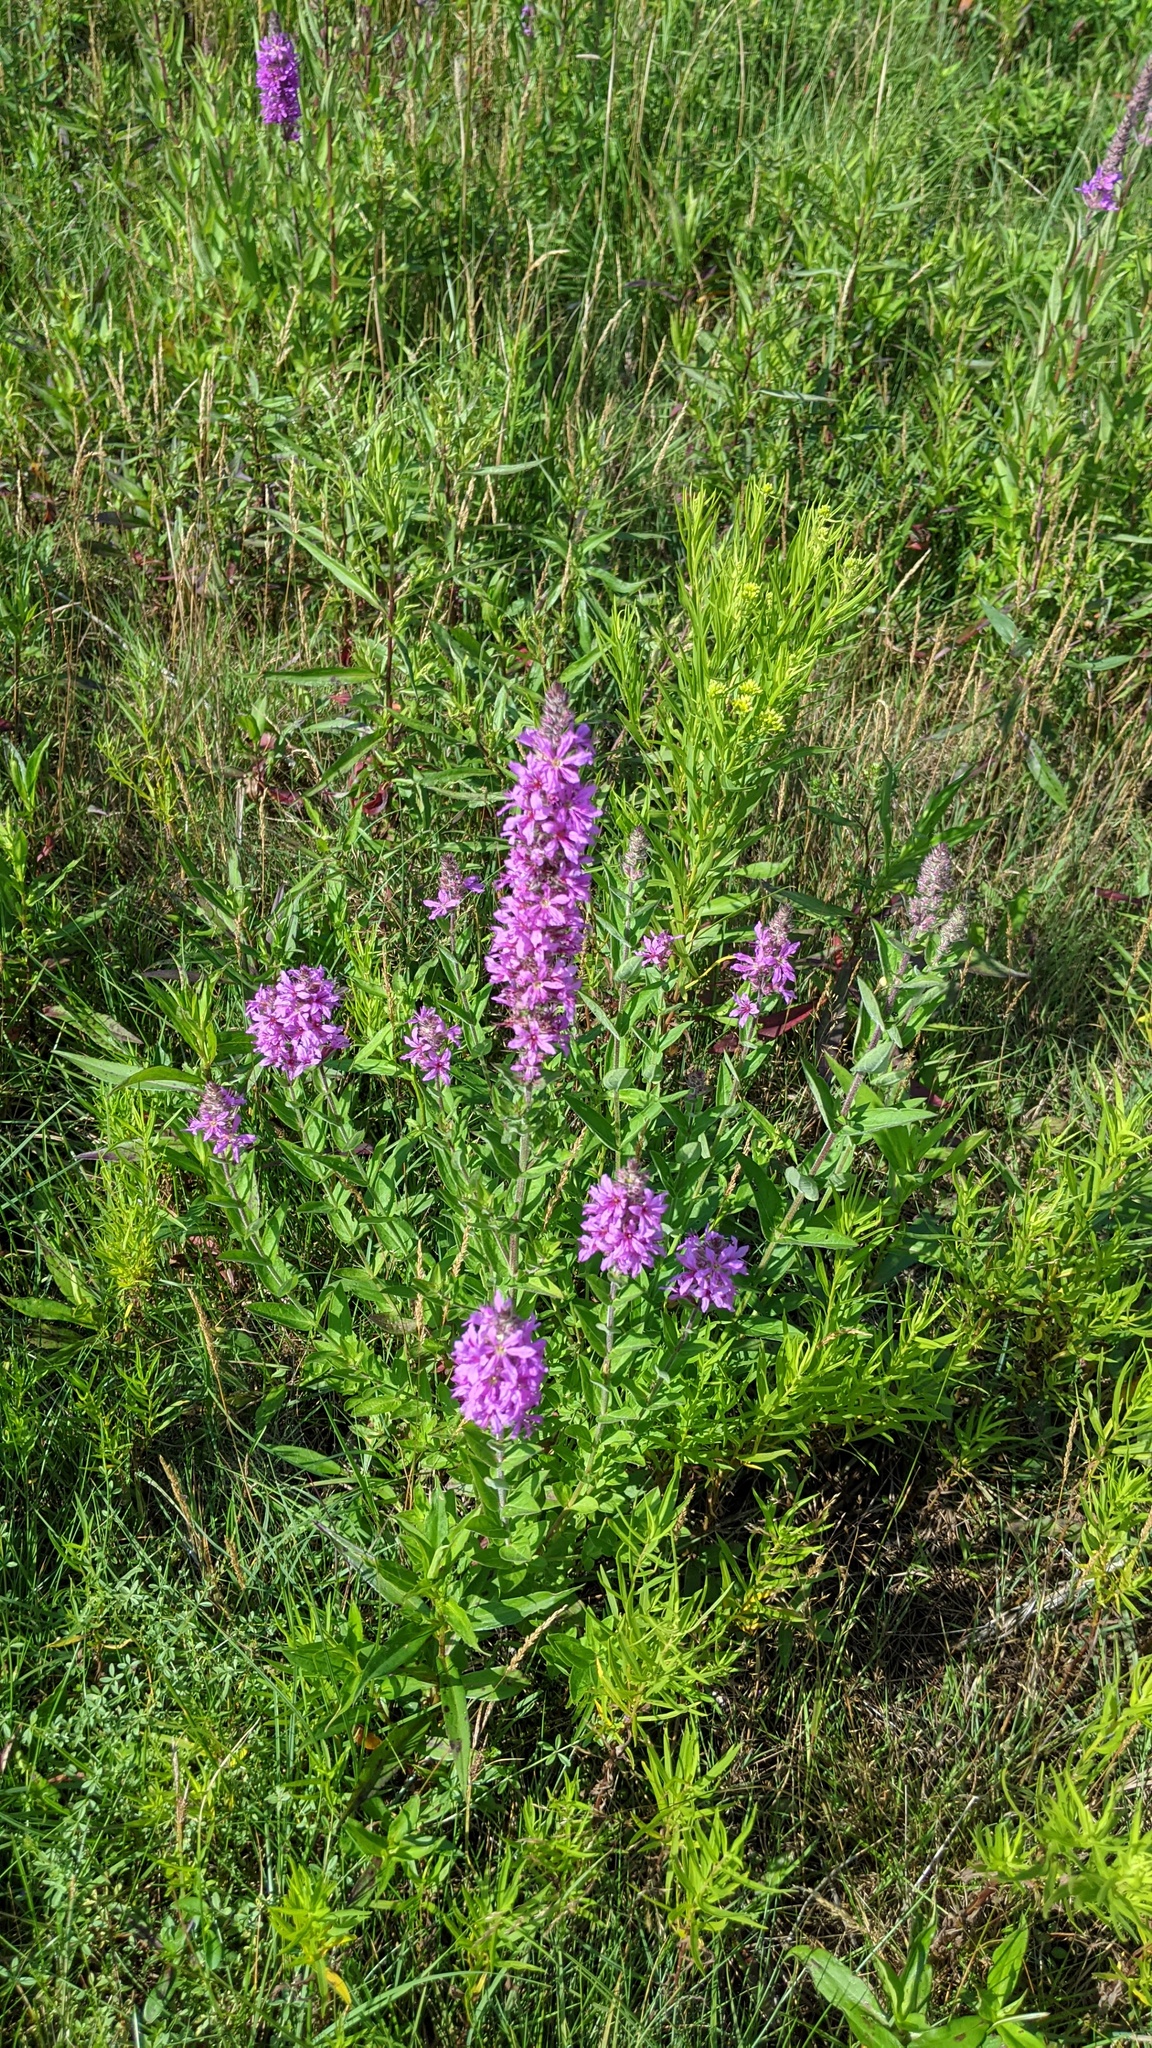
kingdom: Plantae
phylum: Tracheophyta
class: Magnoliopsida
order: Myrtales
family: Lythraceae
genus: Lythrum
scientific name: Lythrum salicaria
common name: Purple loosestrife
